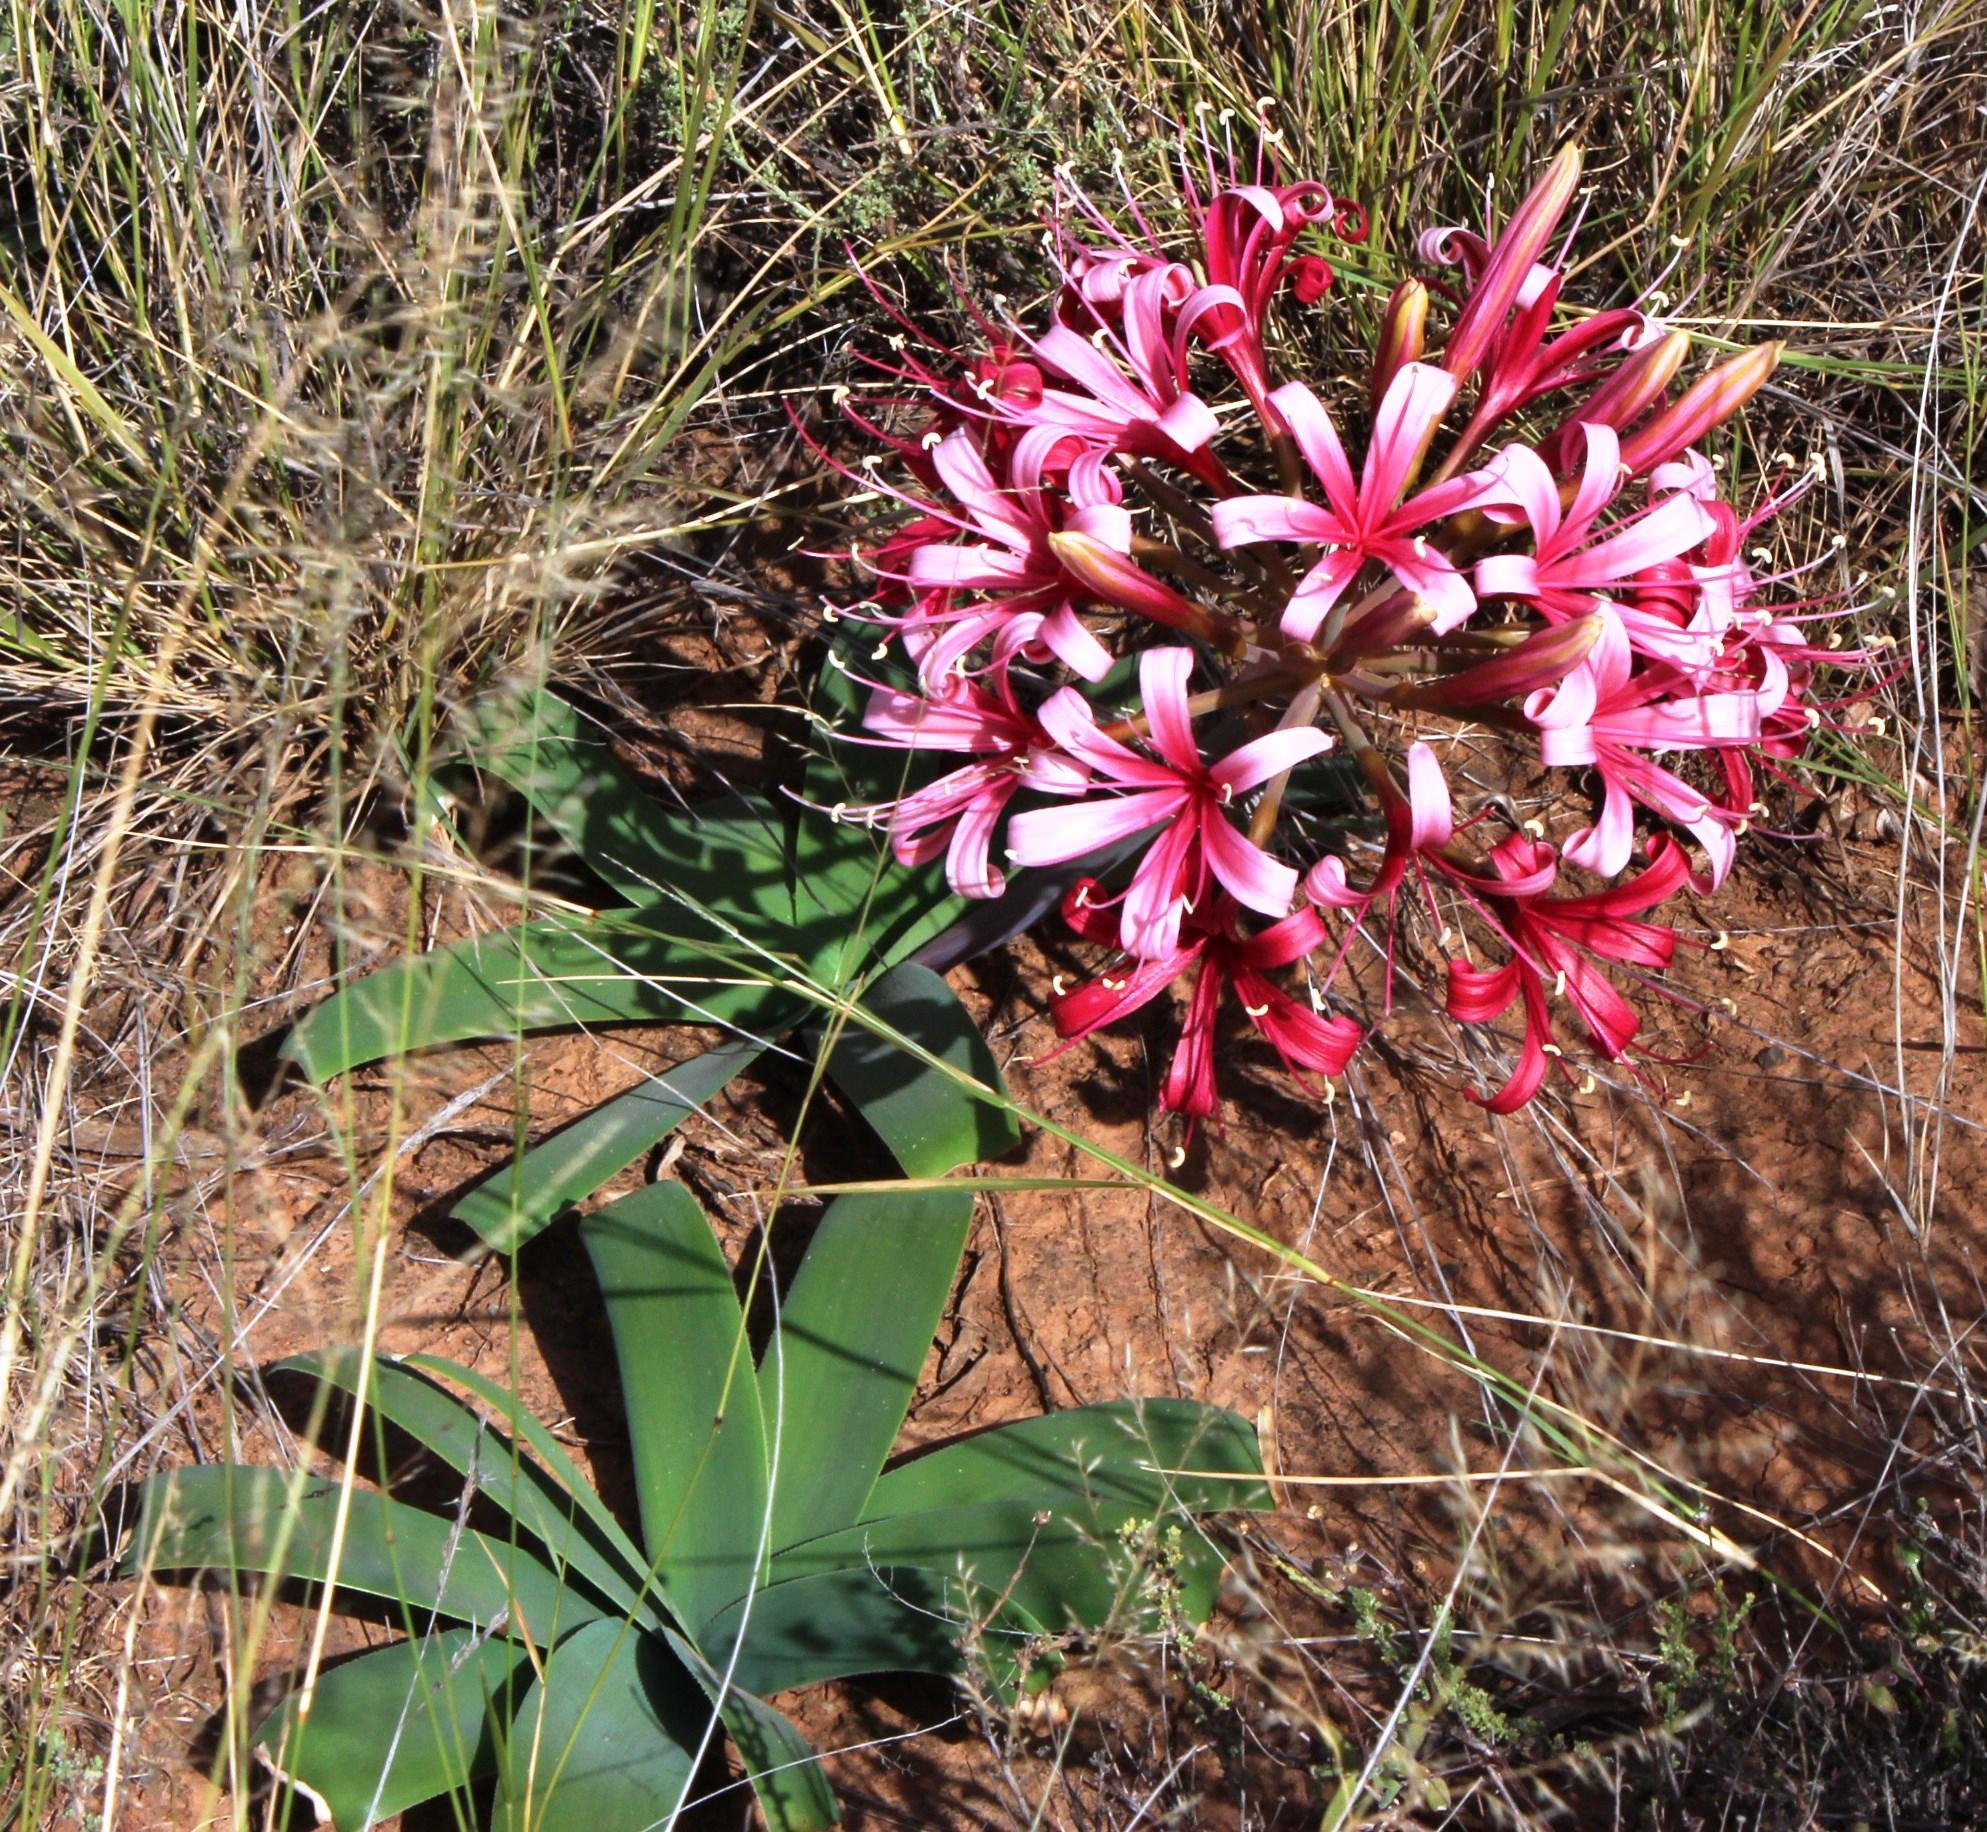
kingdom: Plantae
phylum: Tracheophyta
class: Liliopsida
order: Asparagales
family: Amaryllidaceae
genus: Ammocharis
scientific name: Ammocharis coranica
